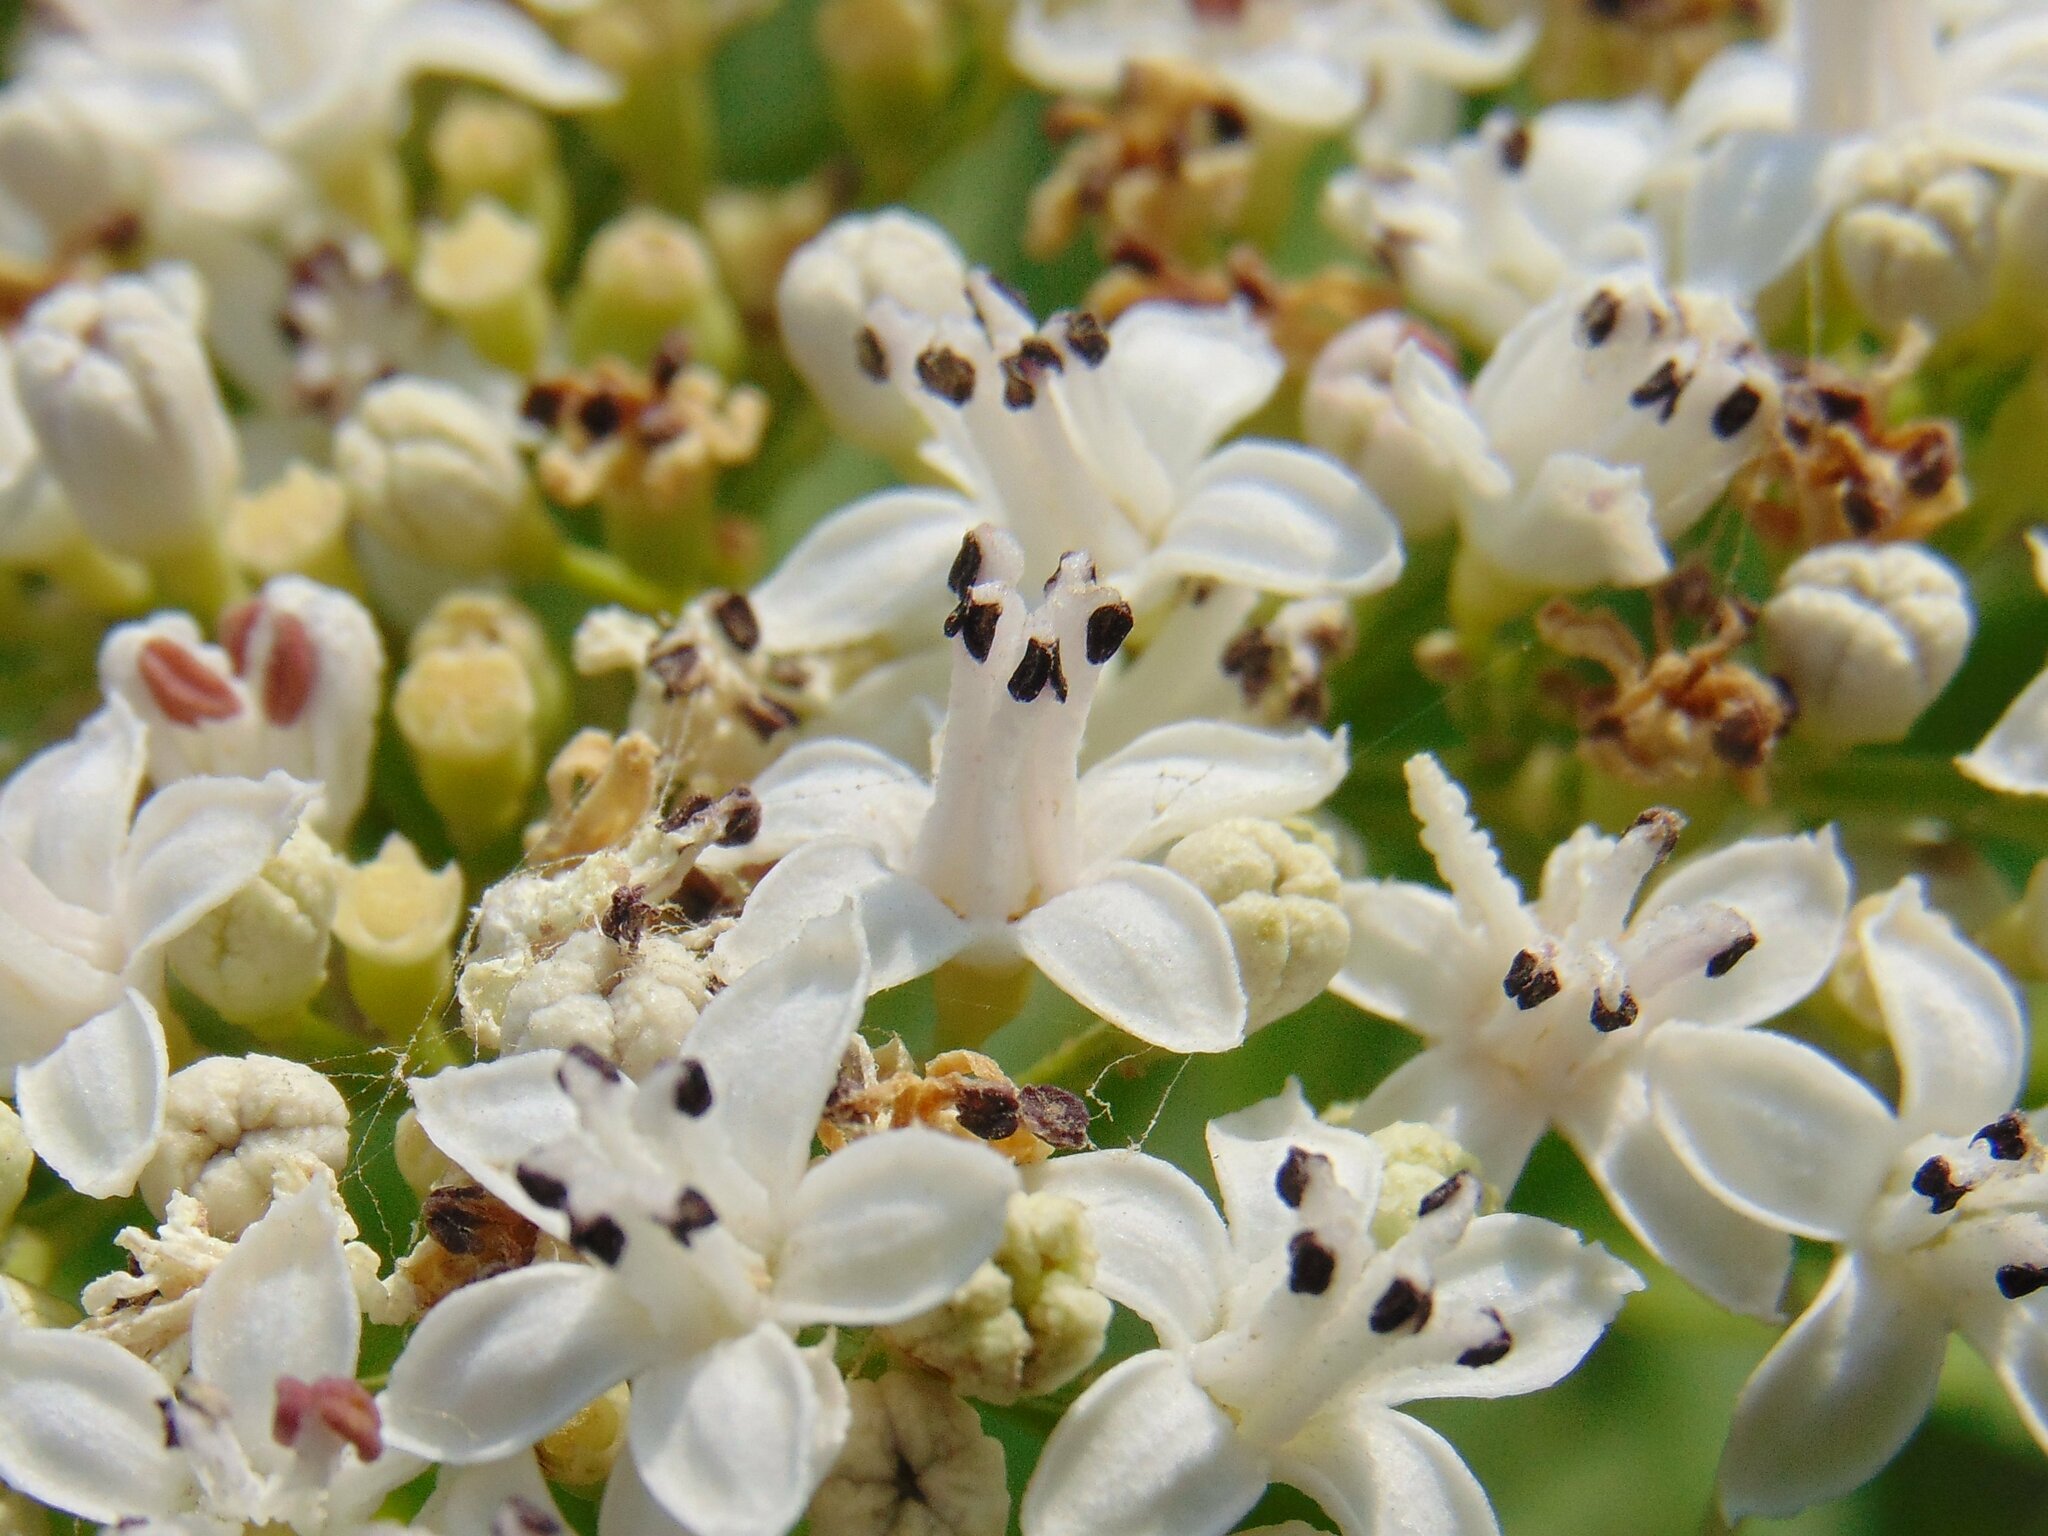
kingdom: Plantae
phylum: Tracheophyta
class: Magnoliopsida
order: Dipsacales
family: Viburnaceae
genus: Sambucus
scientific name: Sambucus ebulus
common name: Dwarf elder
